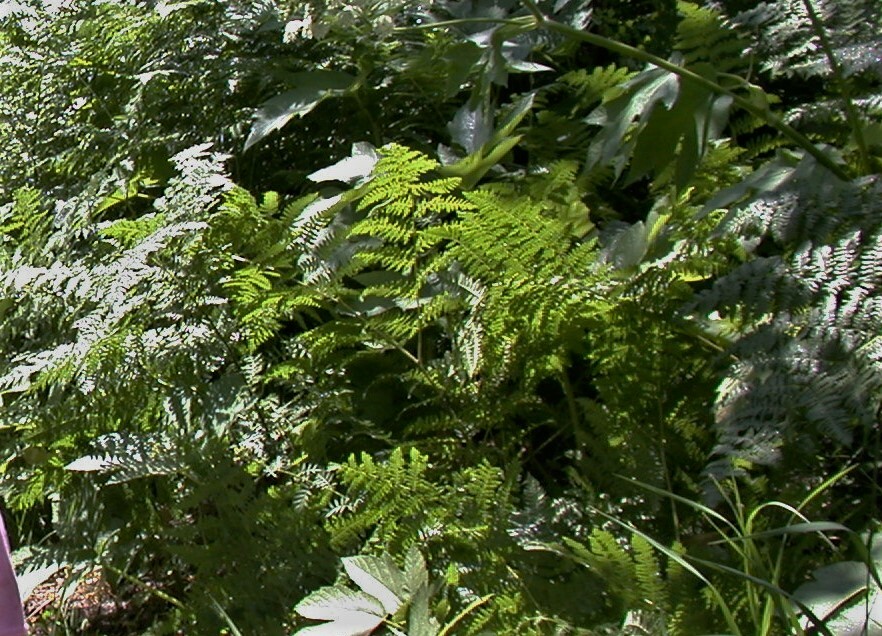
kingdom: Plantae
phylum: Tracheophyta
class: Polypodiopsida
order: Polypodiales
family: Dennstaedtiaceae
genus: Pteridium
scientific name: Pteridium aquilinum
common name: Bracken
